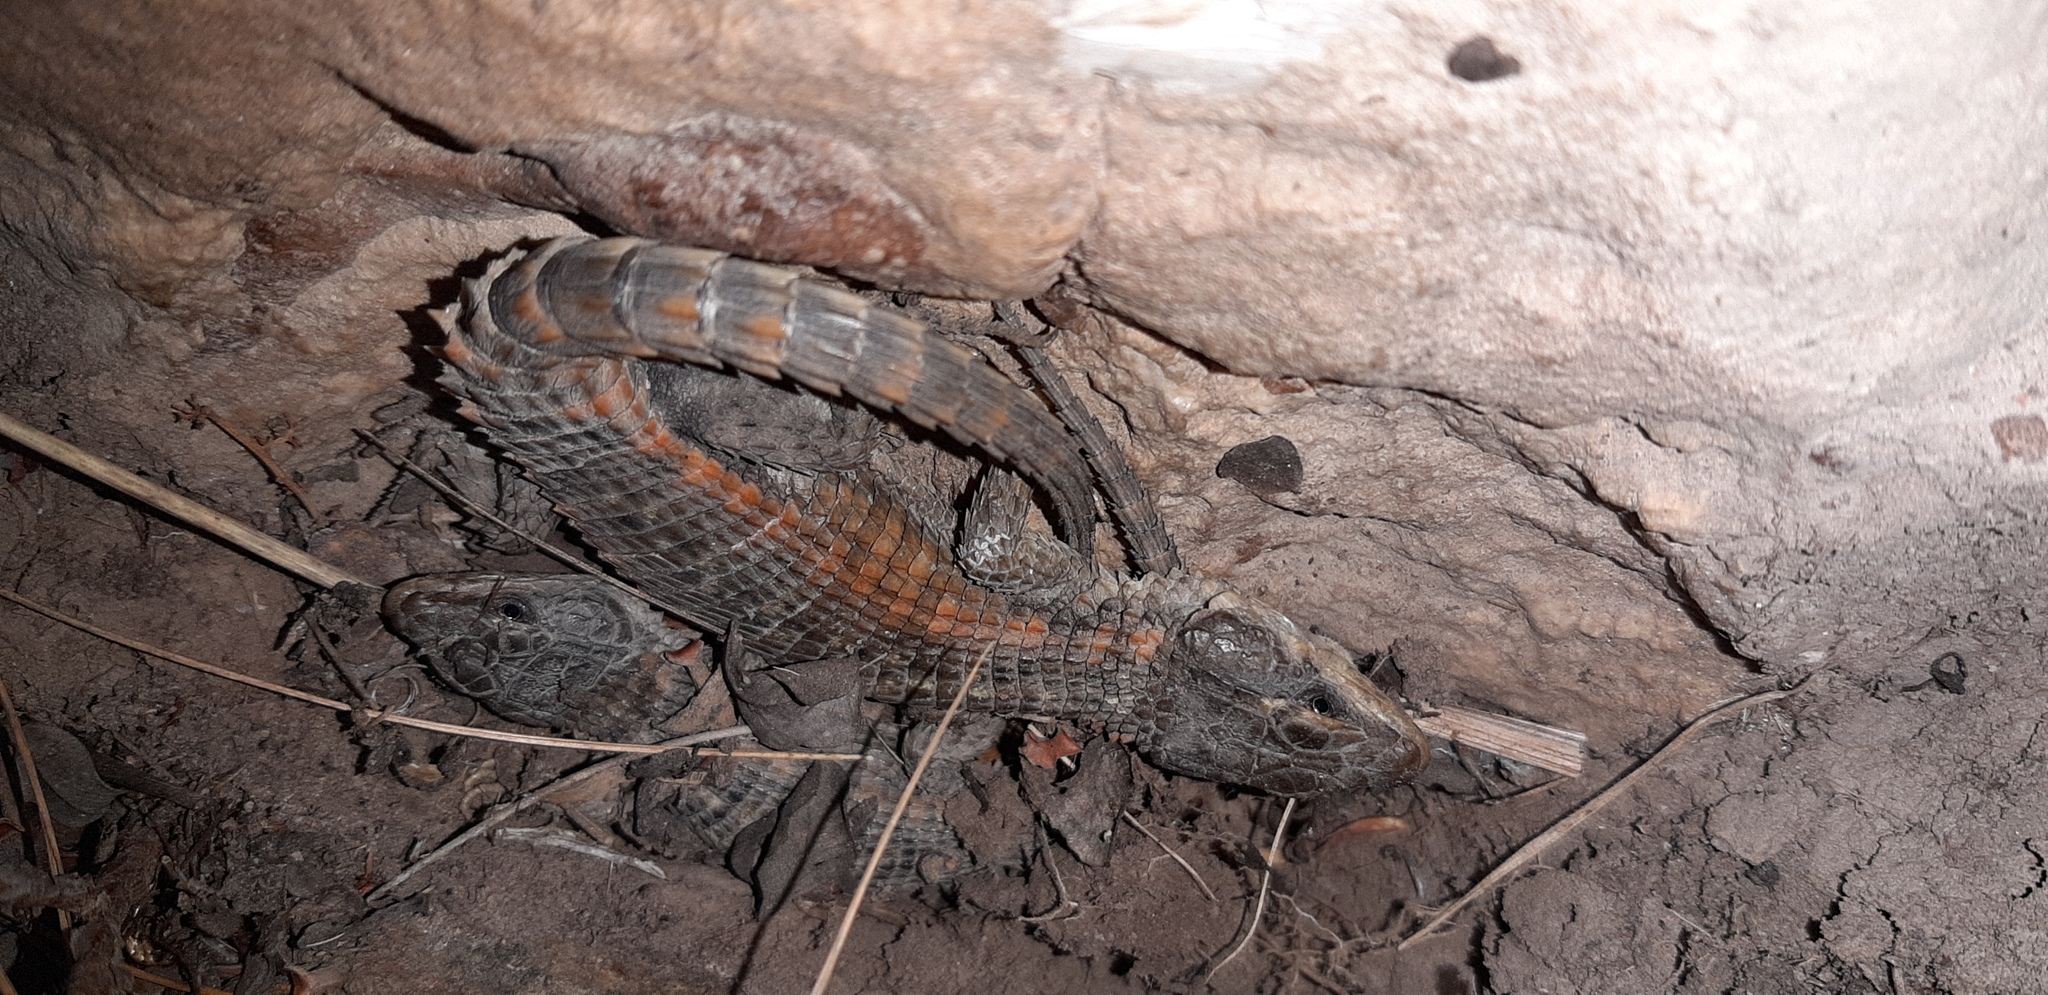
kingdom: Animalia
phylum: Chordata
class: Squamata
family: Cordylidae
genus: Cordylus
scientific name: Cordylus cordylus
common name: Cape girdled lizard
